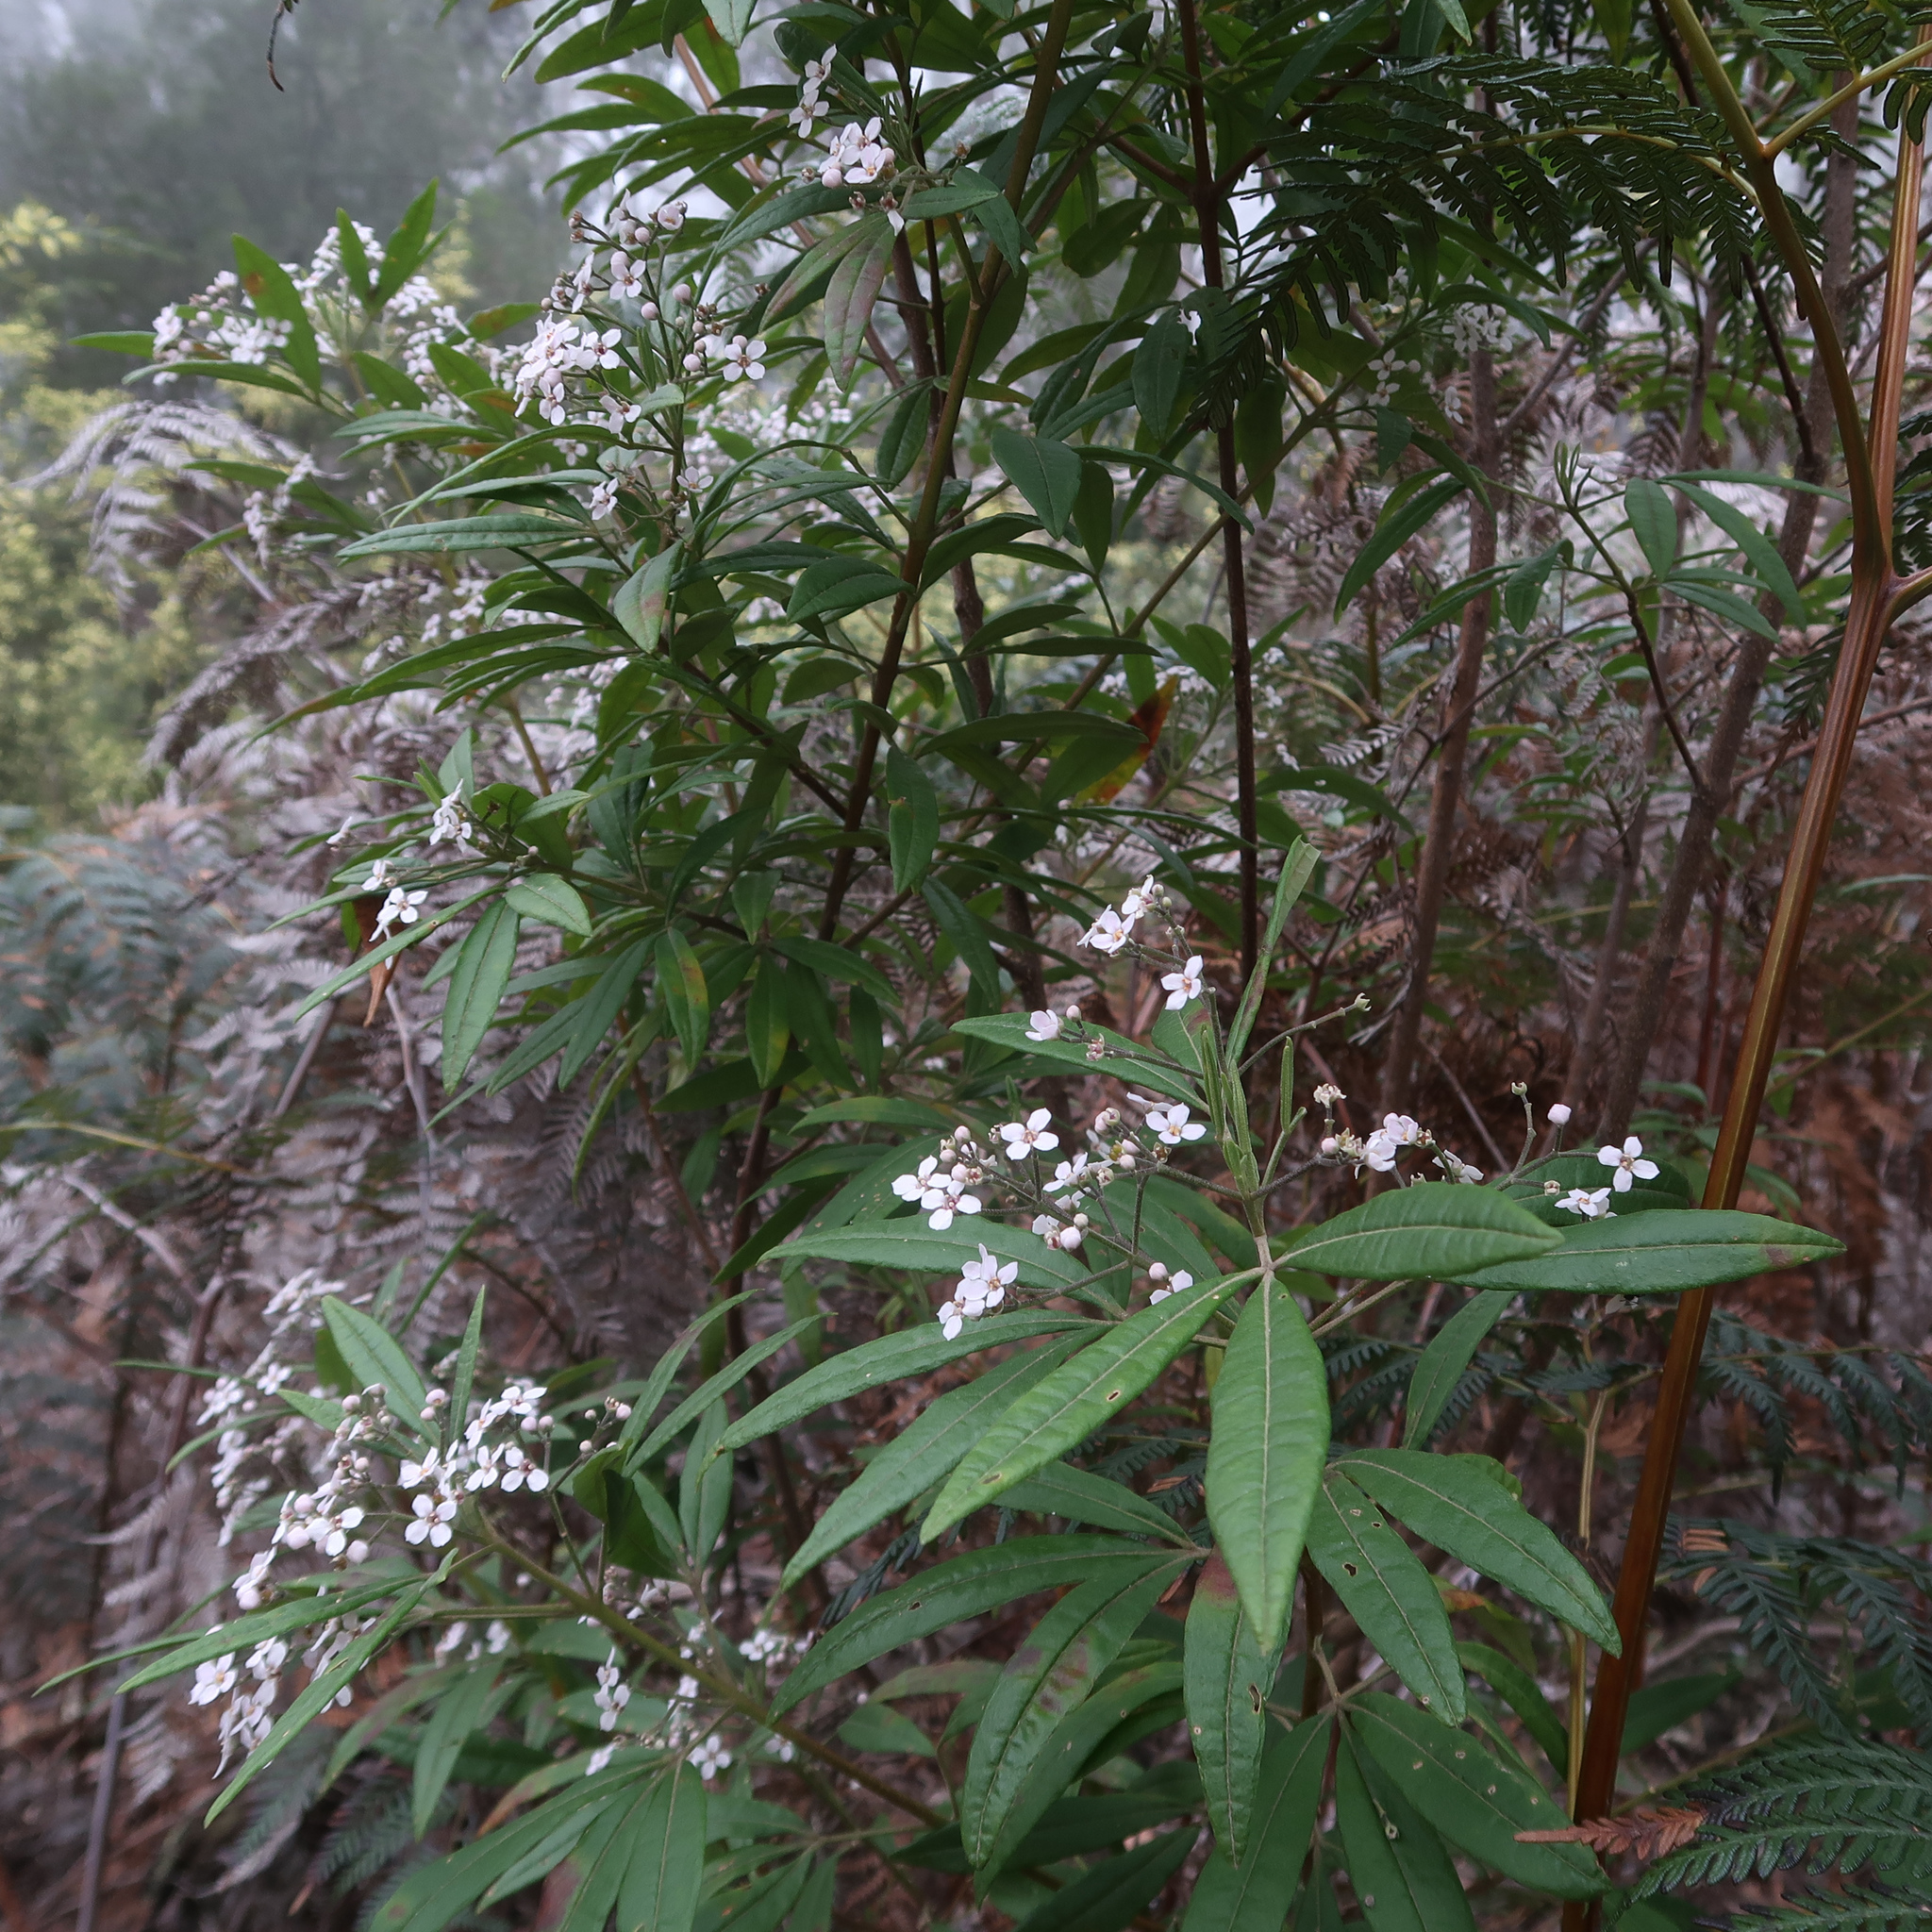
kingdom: Plantae
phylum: Tracheophyta
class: Magnoliopsida
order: Sapindales
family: Rutaceae
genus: Zieria
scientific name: Zieria arborescens
